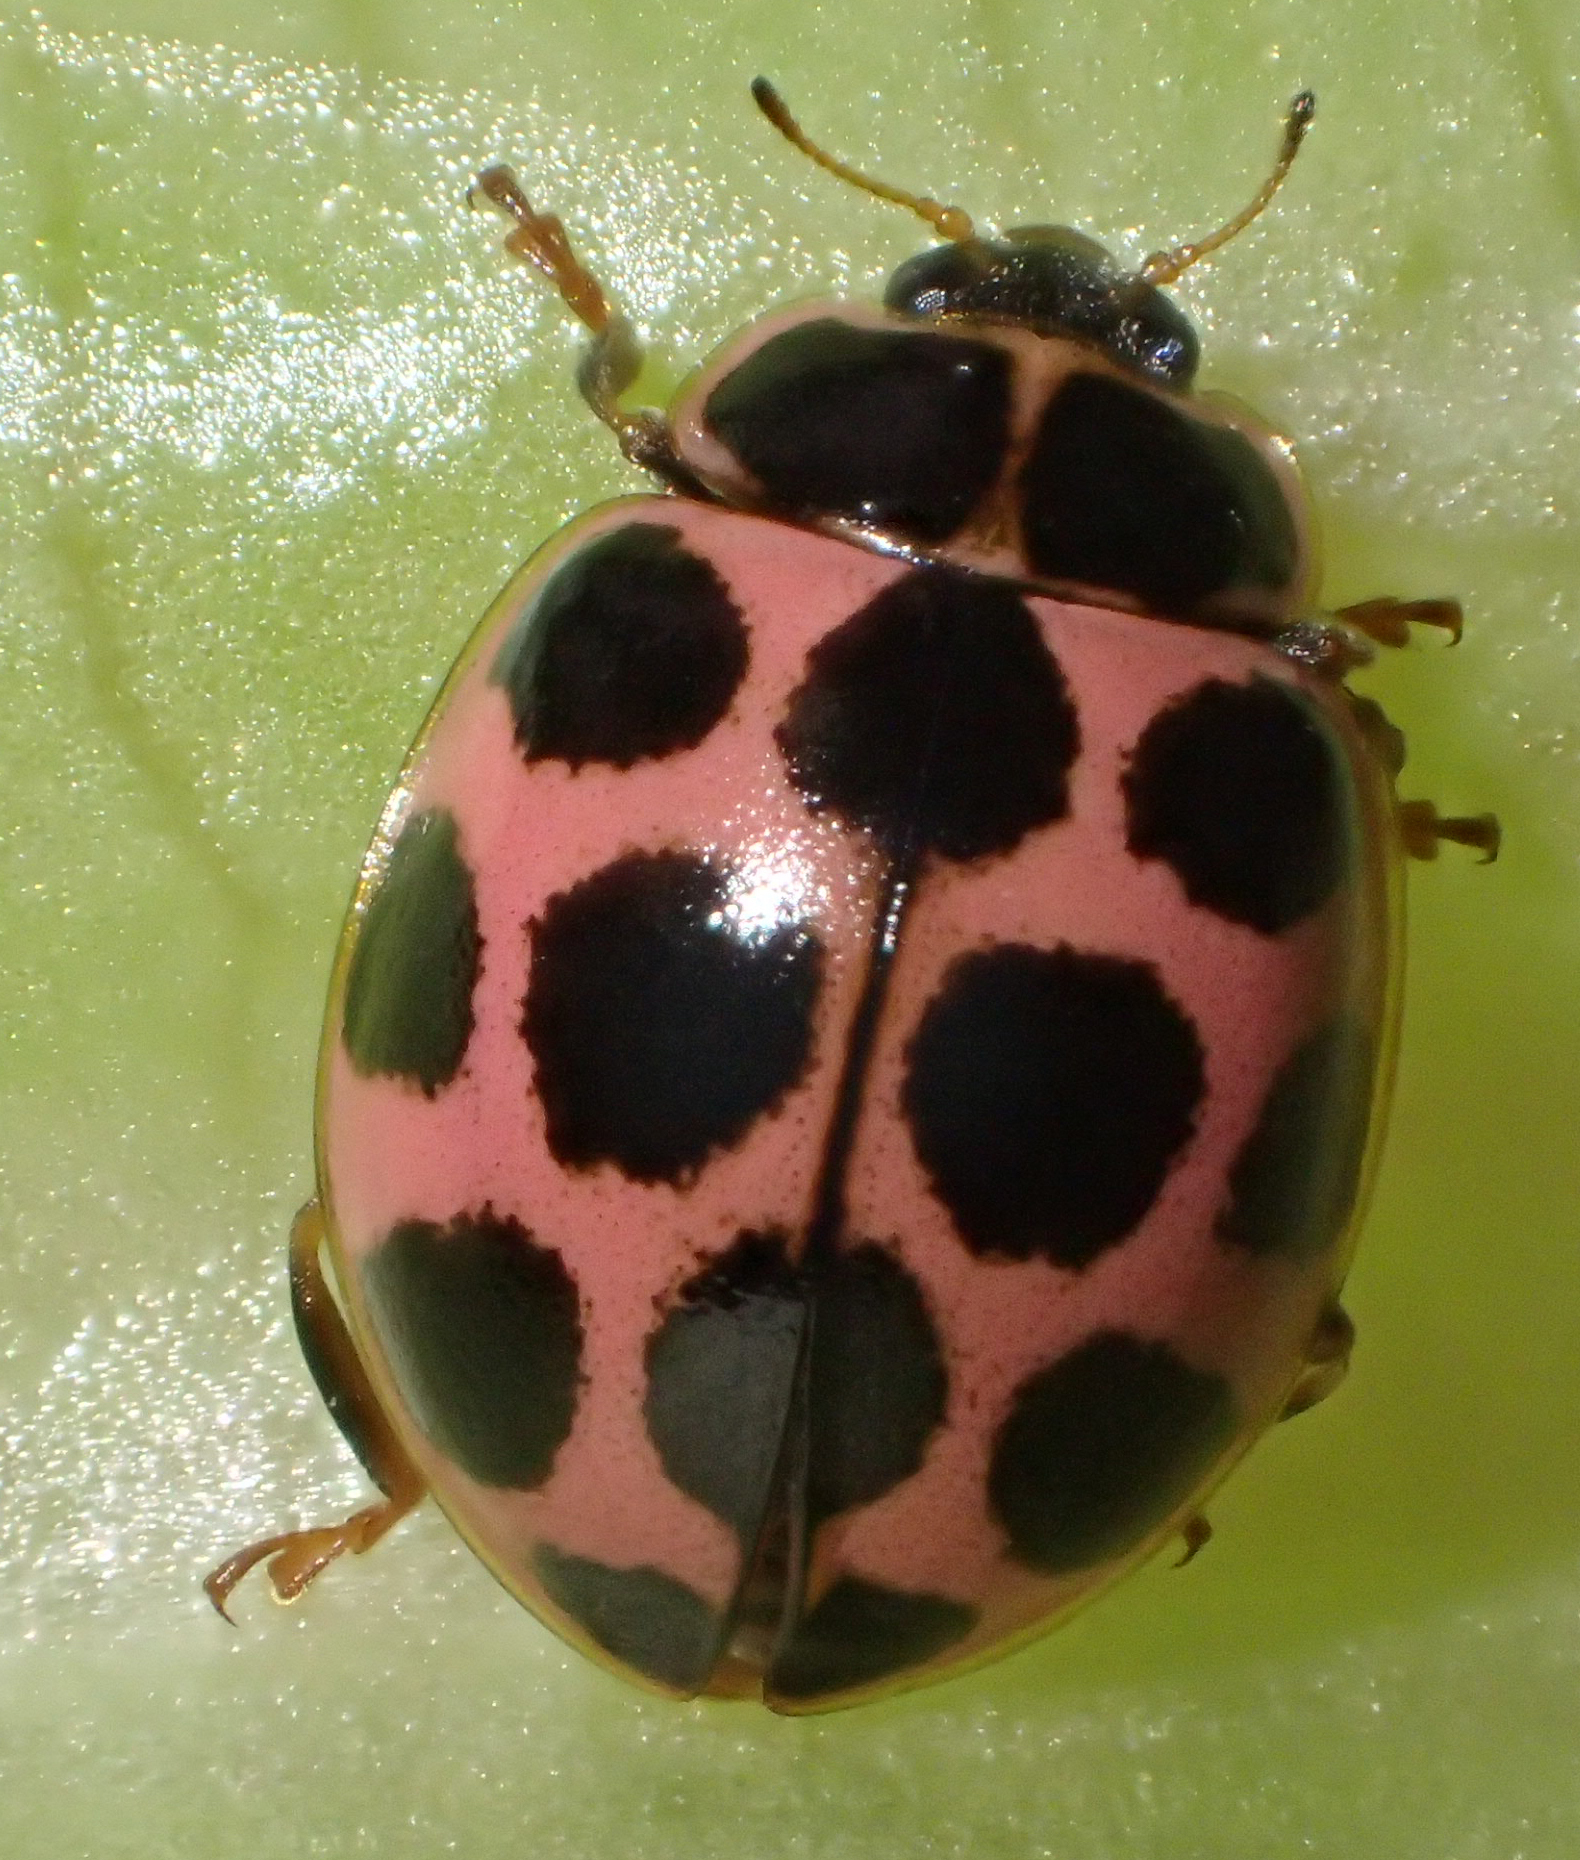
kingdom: Animalia
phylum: Arthropoda
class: Insecta
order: Coleoptera
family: Coccinellidae
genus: Calvia
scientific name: Calvia quatuordecimguttata
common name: Cream-spot ladybird
